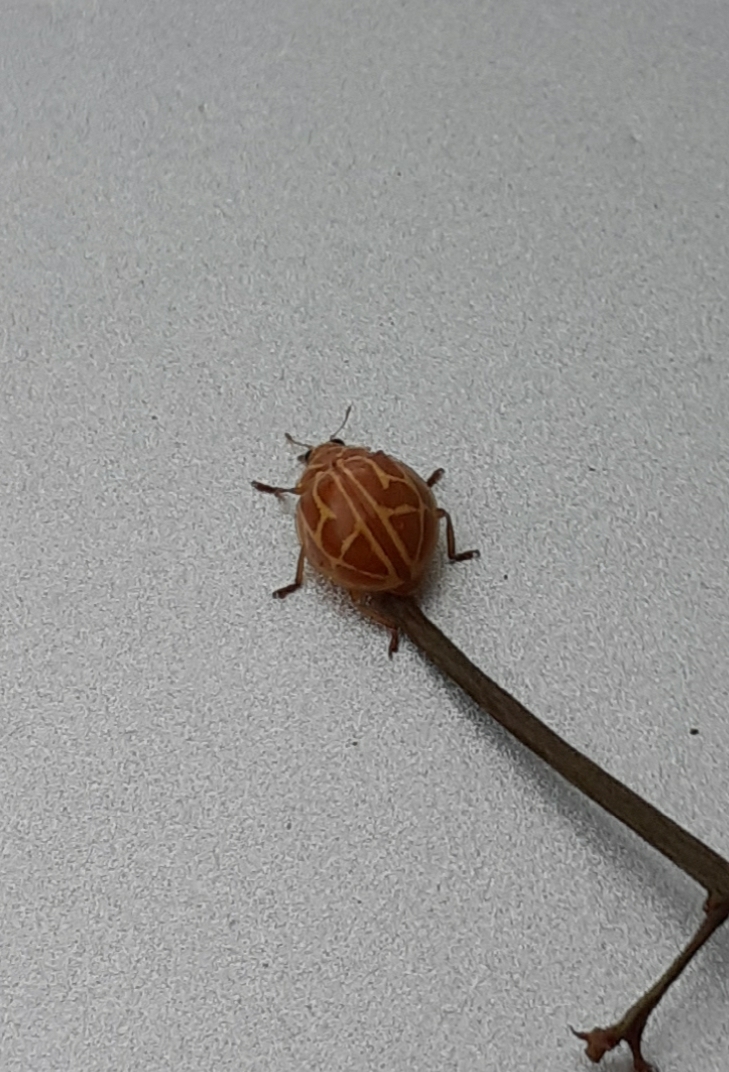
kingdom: Animalia
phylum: Arthropoda
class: Insecta
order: Coleoptera
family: Coccinellidae
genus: Neocalvia
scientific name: Neocalvia anastomozans
